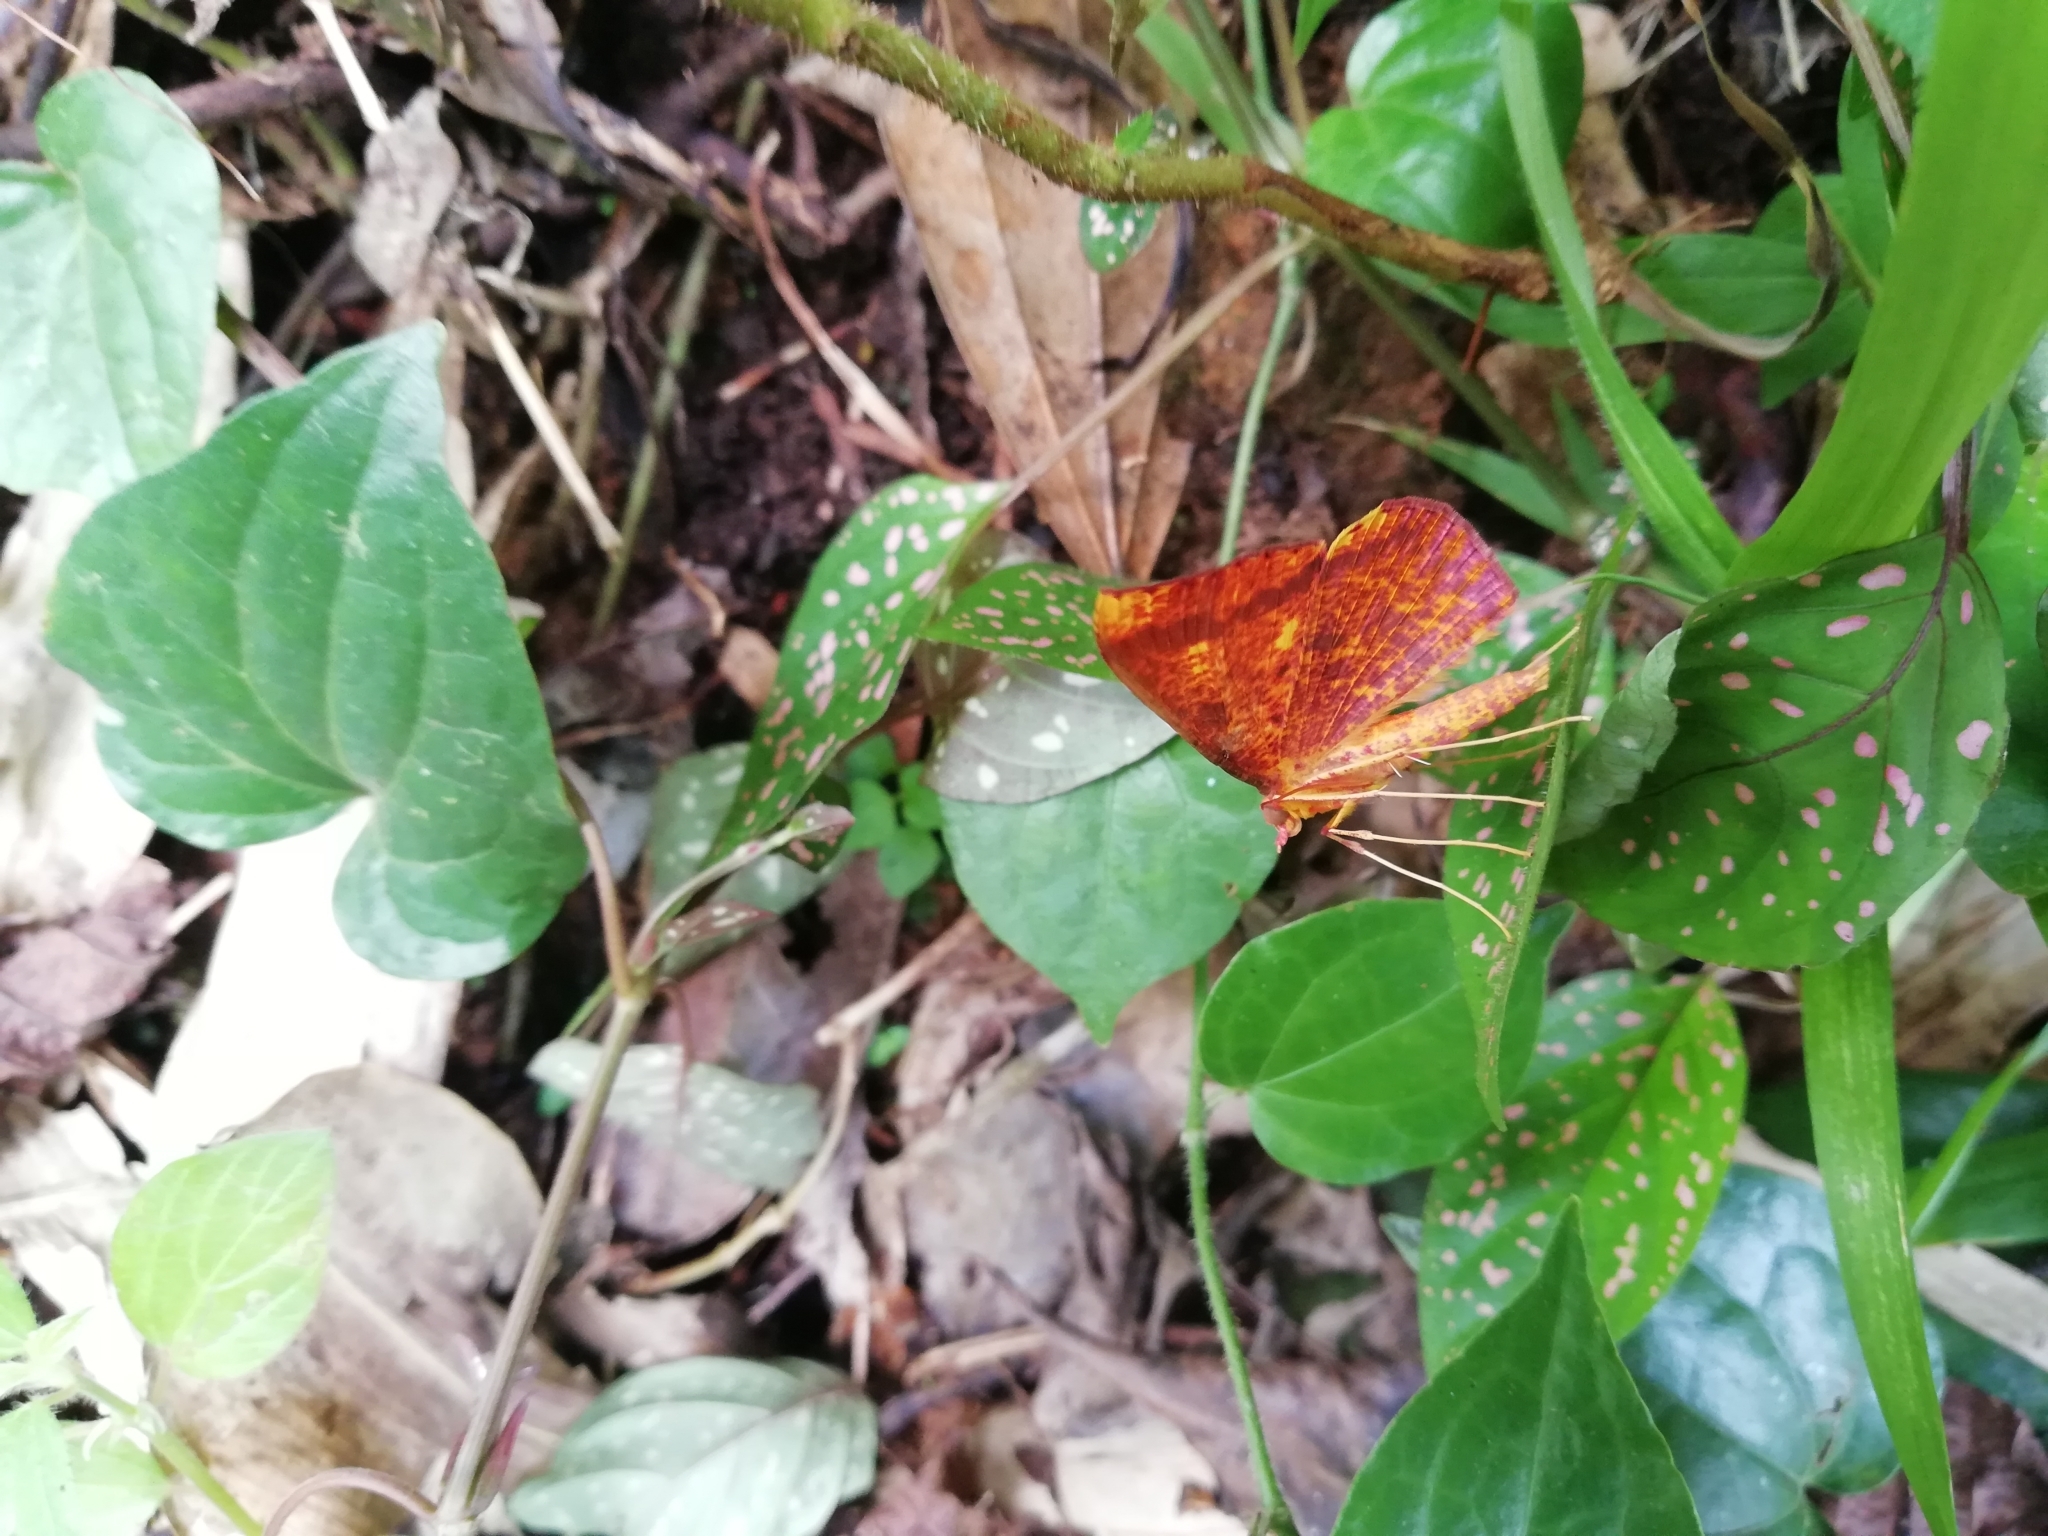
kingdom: Animalia
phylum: Arthropoda
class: Insecta
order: Lepidoptera
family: Geometridae
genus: Eumelea
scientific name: Eumelea ludovicata
